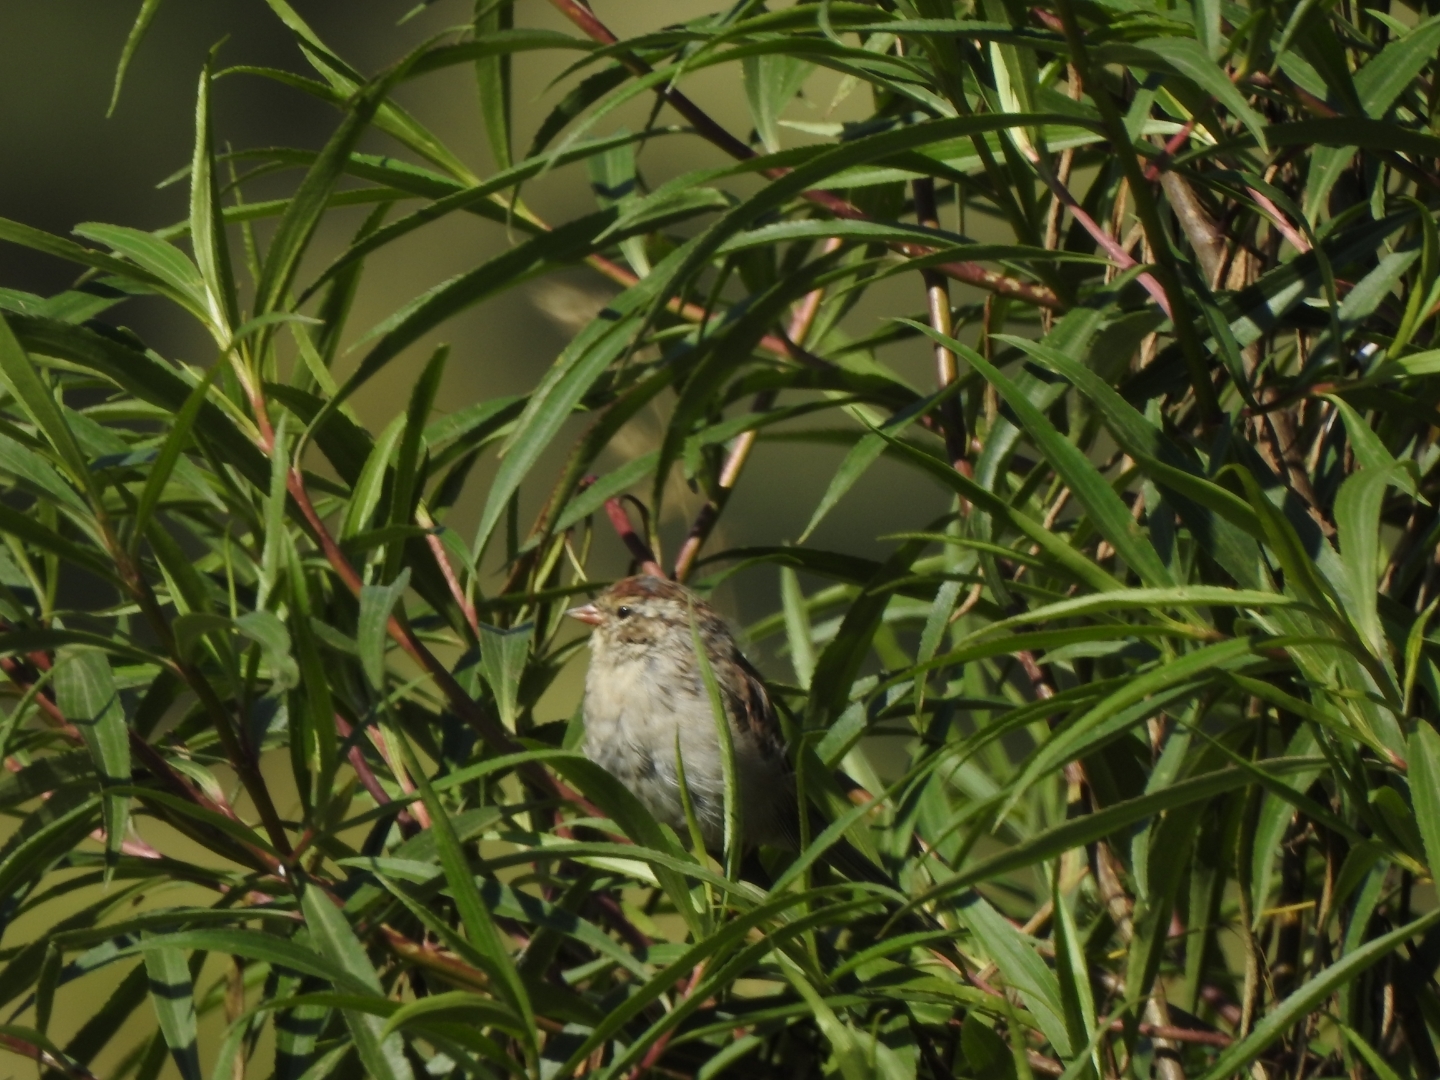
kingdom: Animalia
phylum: Chordata
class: Aves
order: Passeriformes
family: Passerellidae
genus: Spizella
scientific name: Spizella passerina
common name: Chipping sparrow
